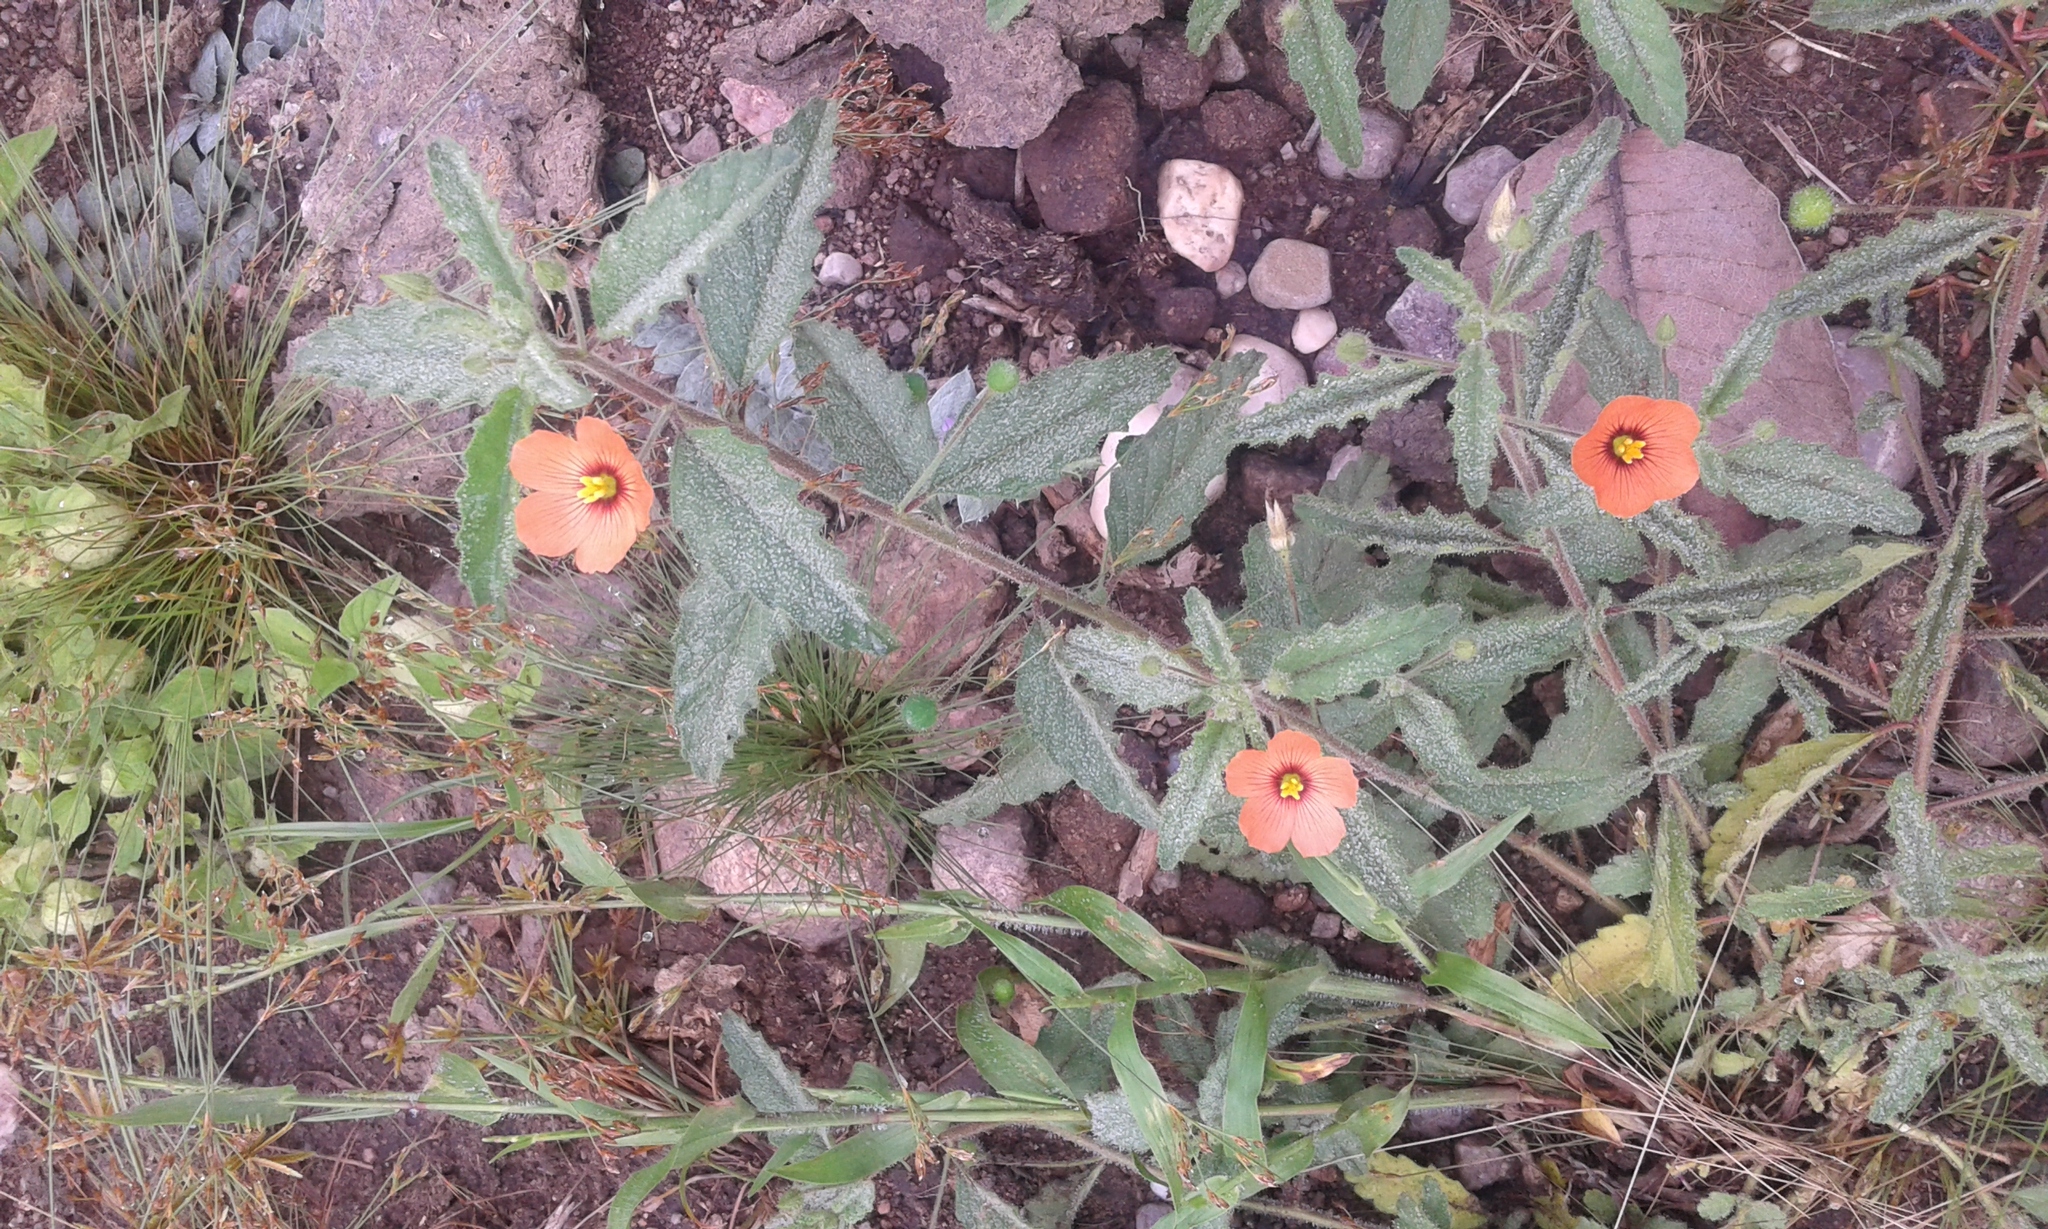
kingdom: Plantae
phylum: Tracheophyta
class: Magnoliopsida
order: Malpighiales
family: Turneraceae
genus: Piriqueta
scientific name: Piriqueta mexicana
